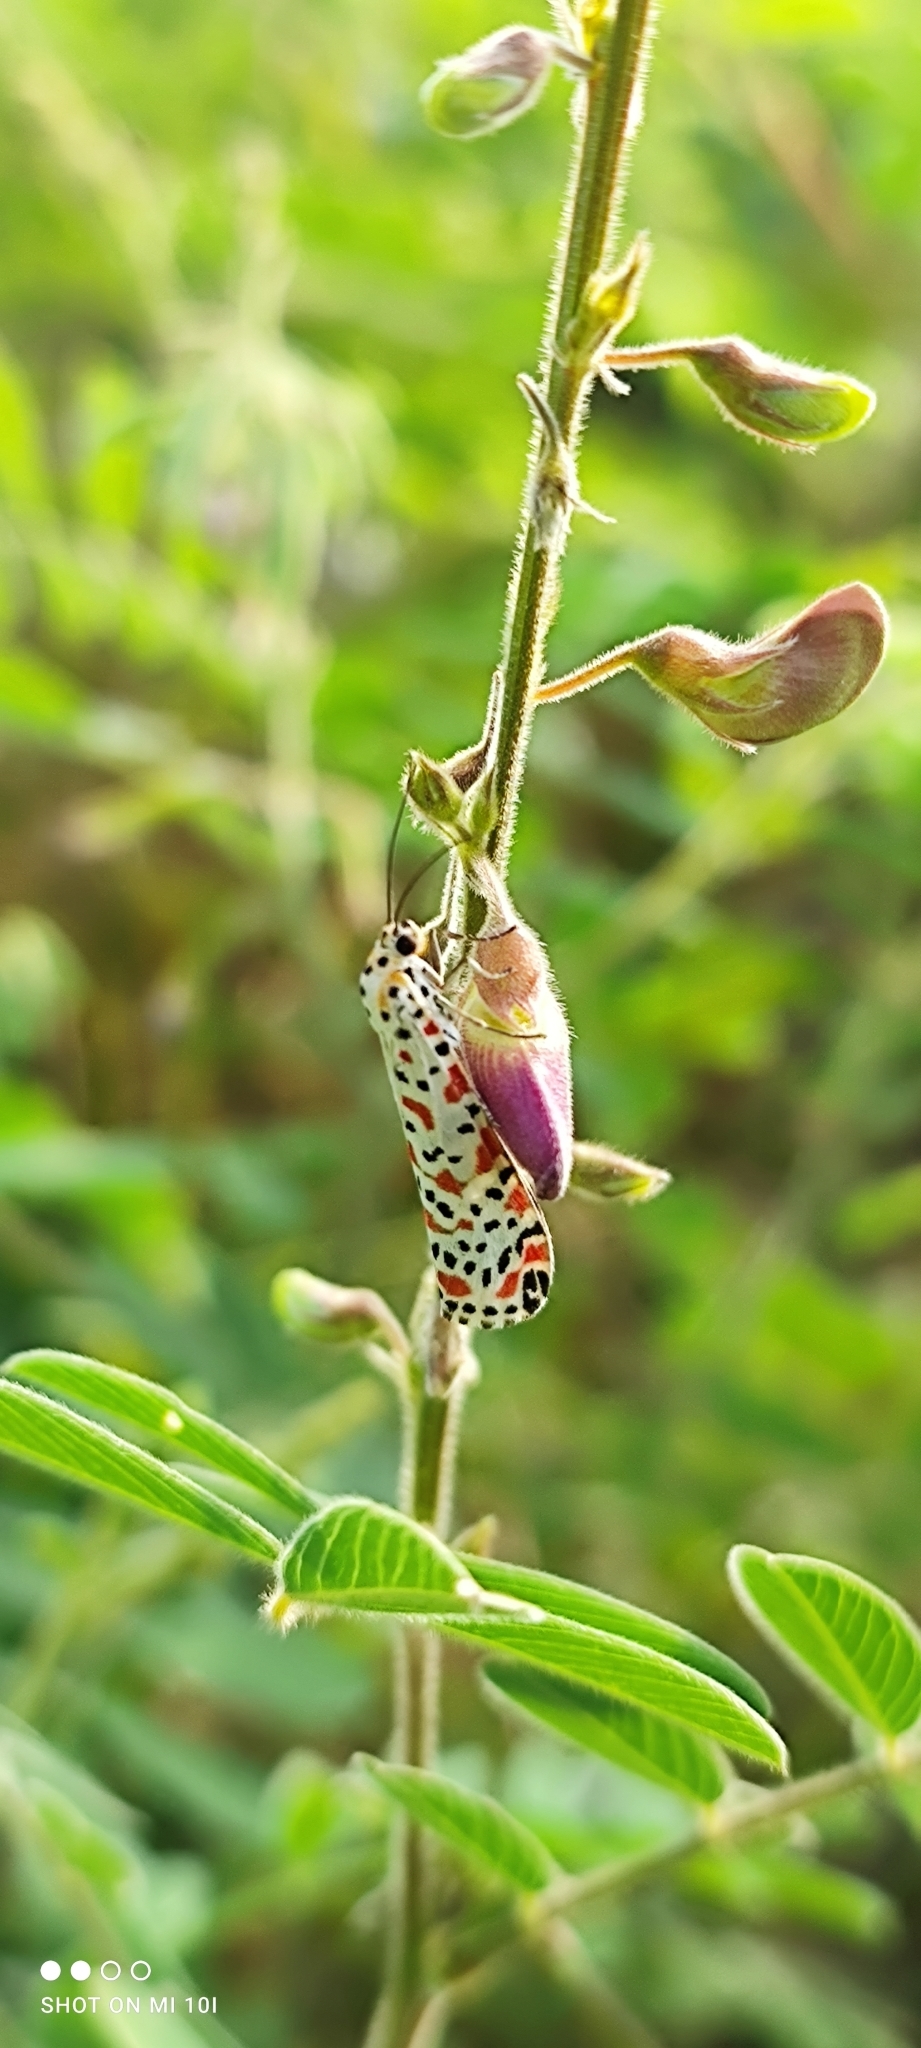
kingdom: Animalia
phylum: Arthropoda
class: Insecta
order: Lepidoptera
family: Erebidae
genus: Utetheisa
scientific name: Utetheisa lotrix
